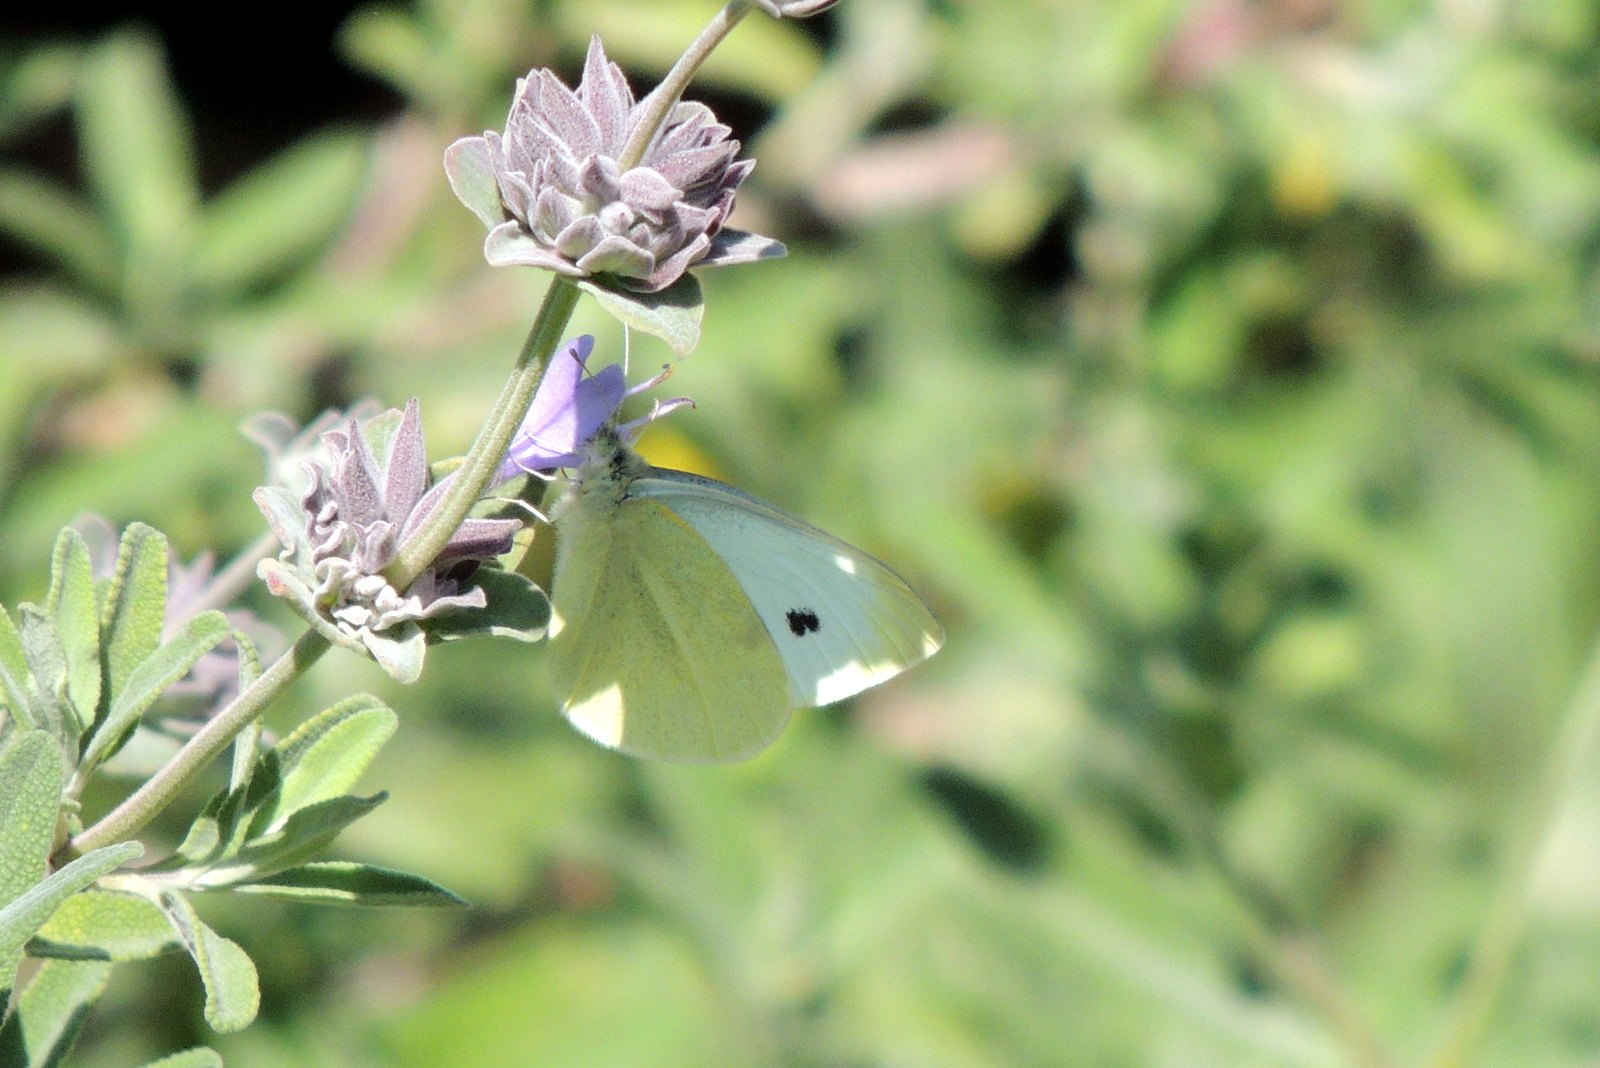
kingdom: Animalia
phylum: Arthropoda
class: Insecta
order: Lepidoptera
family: Pieridae
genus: Pieris
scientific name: Pieris rapae
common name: Small white
